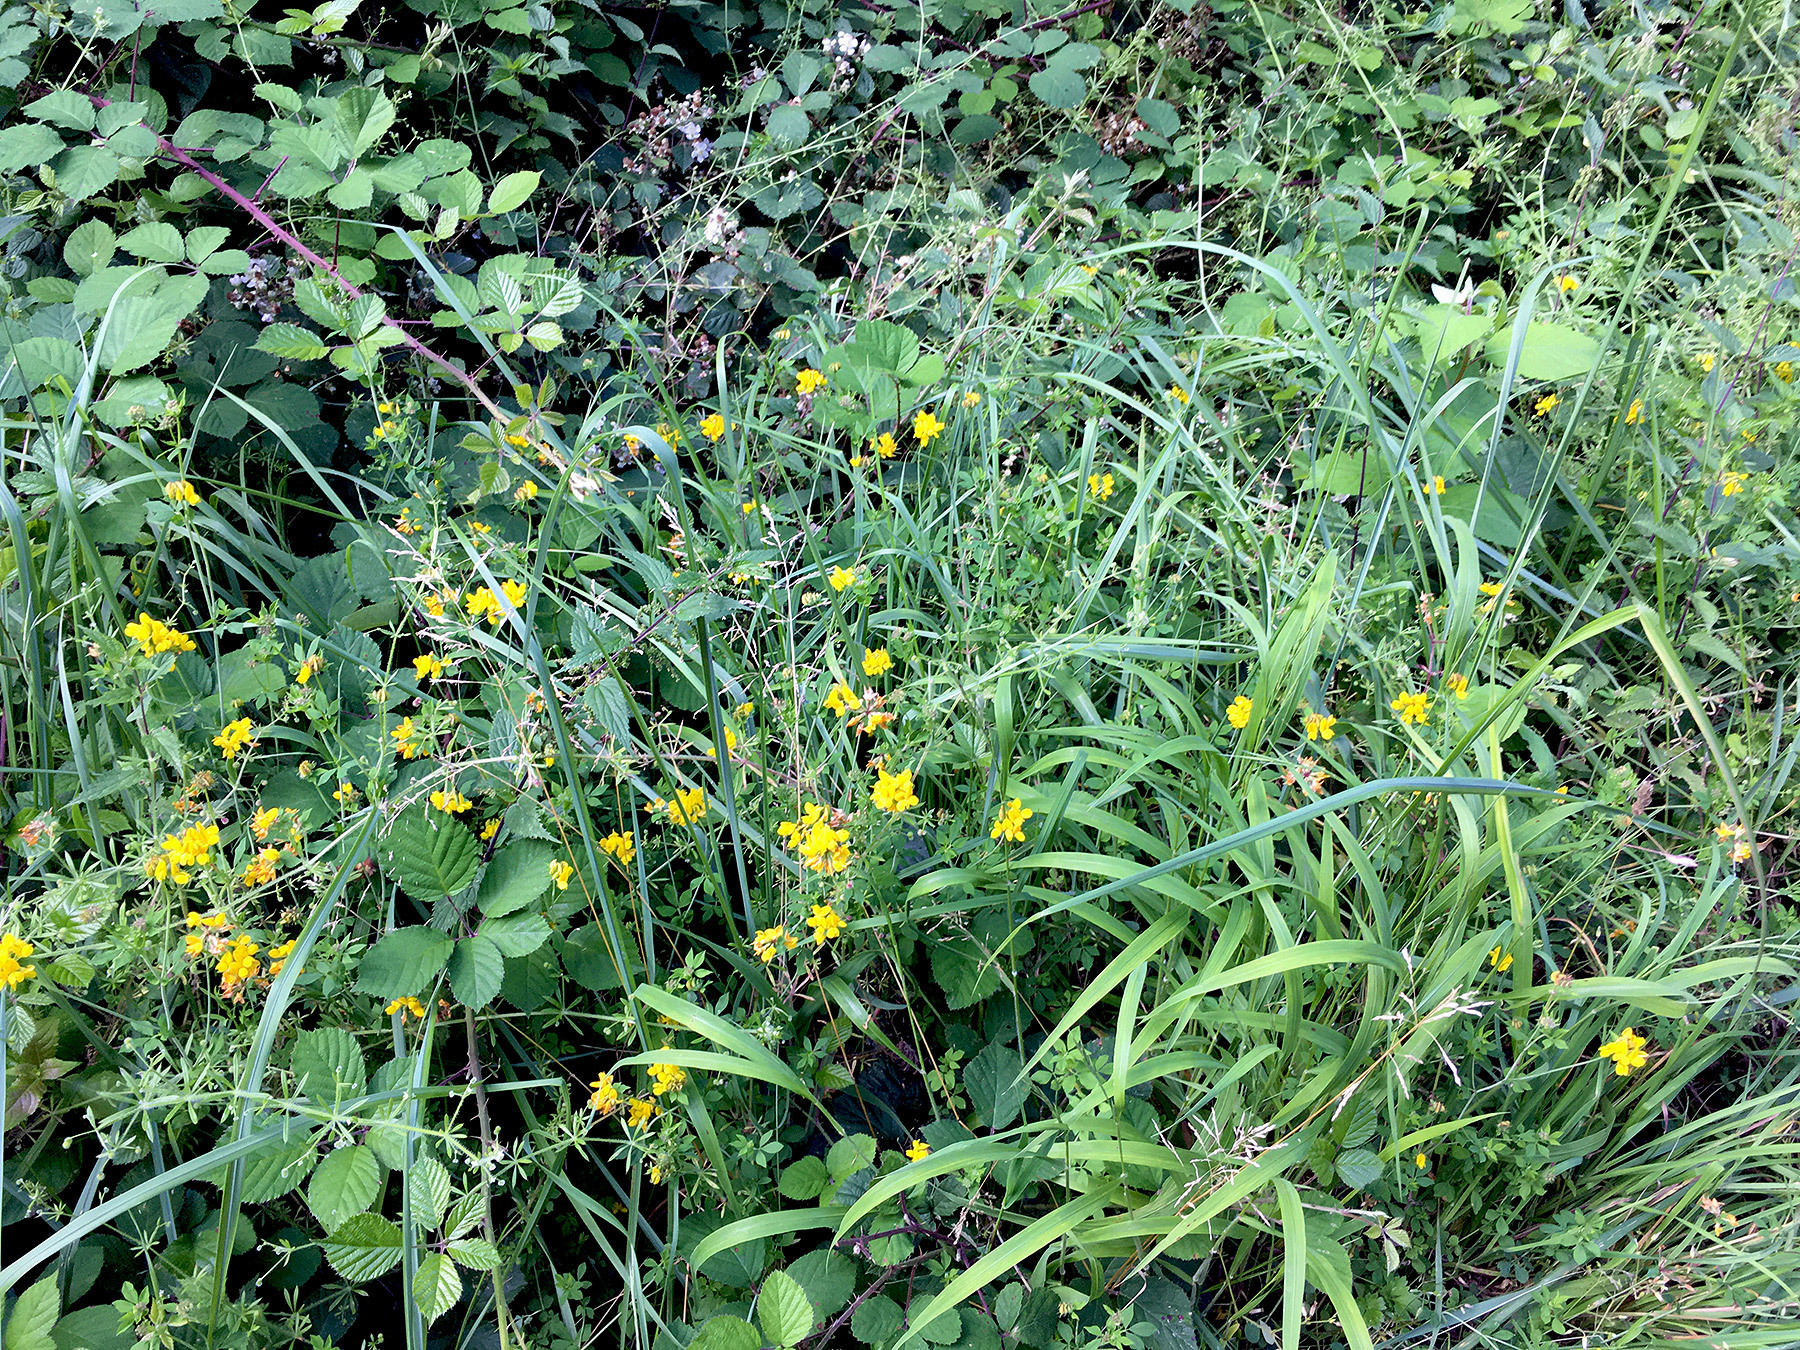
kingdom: Plantae
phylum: Tracheophyta
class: Magnoliopsida
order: Fabales
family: Fabaceae
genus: Lotus
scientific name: Lotus corniculatus
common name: Common bird's-foot-trefoil
